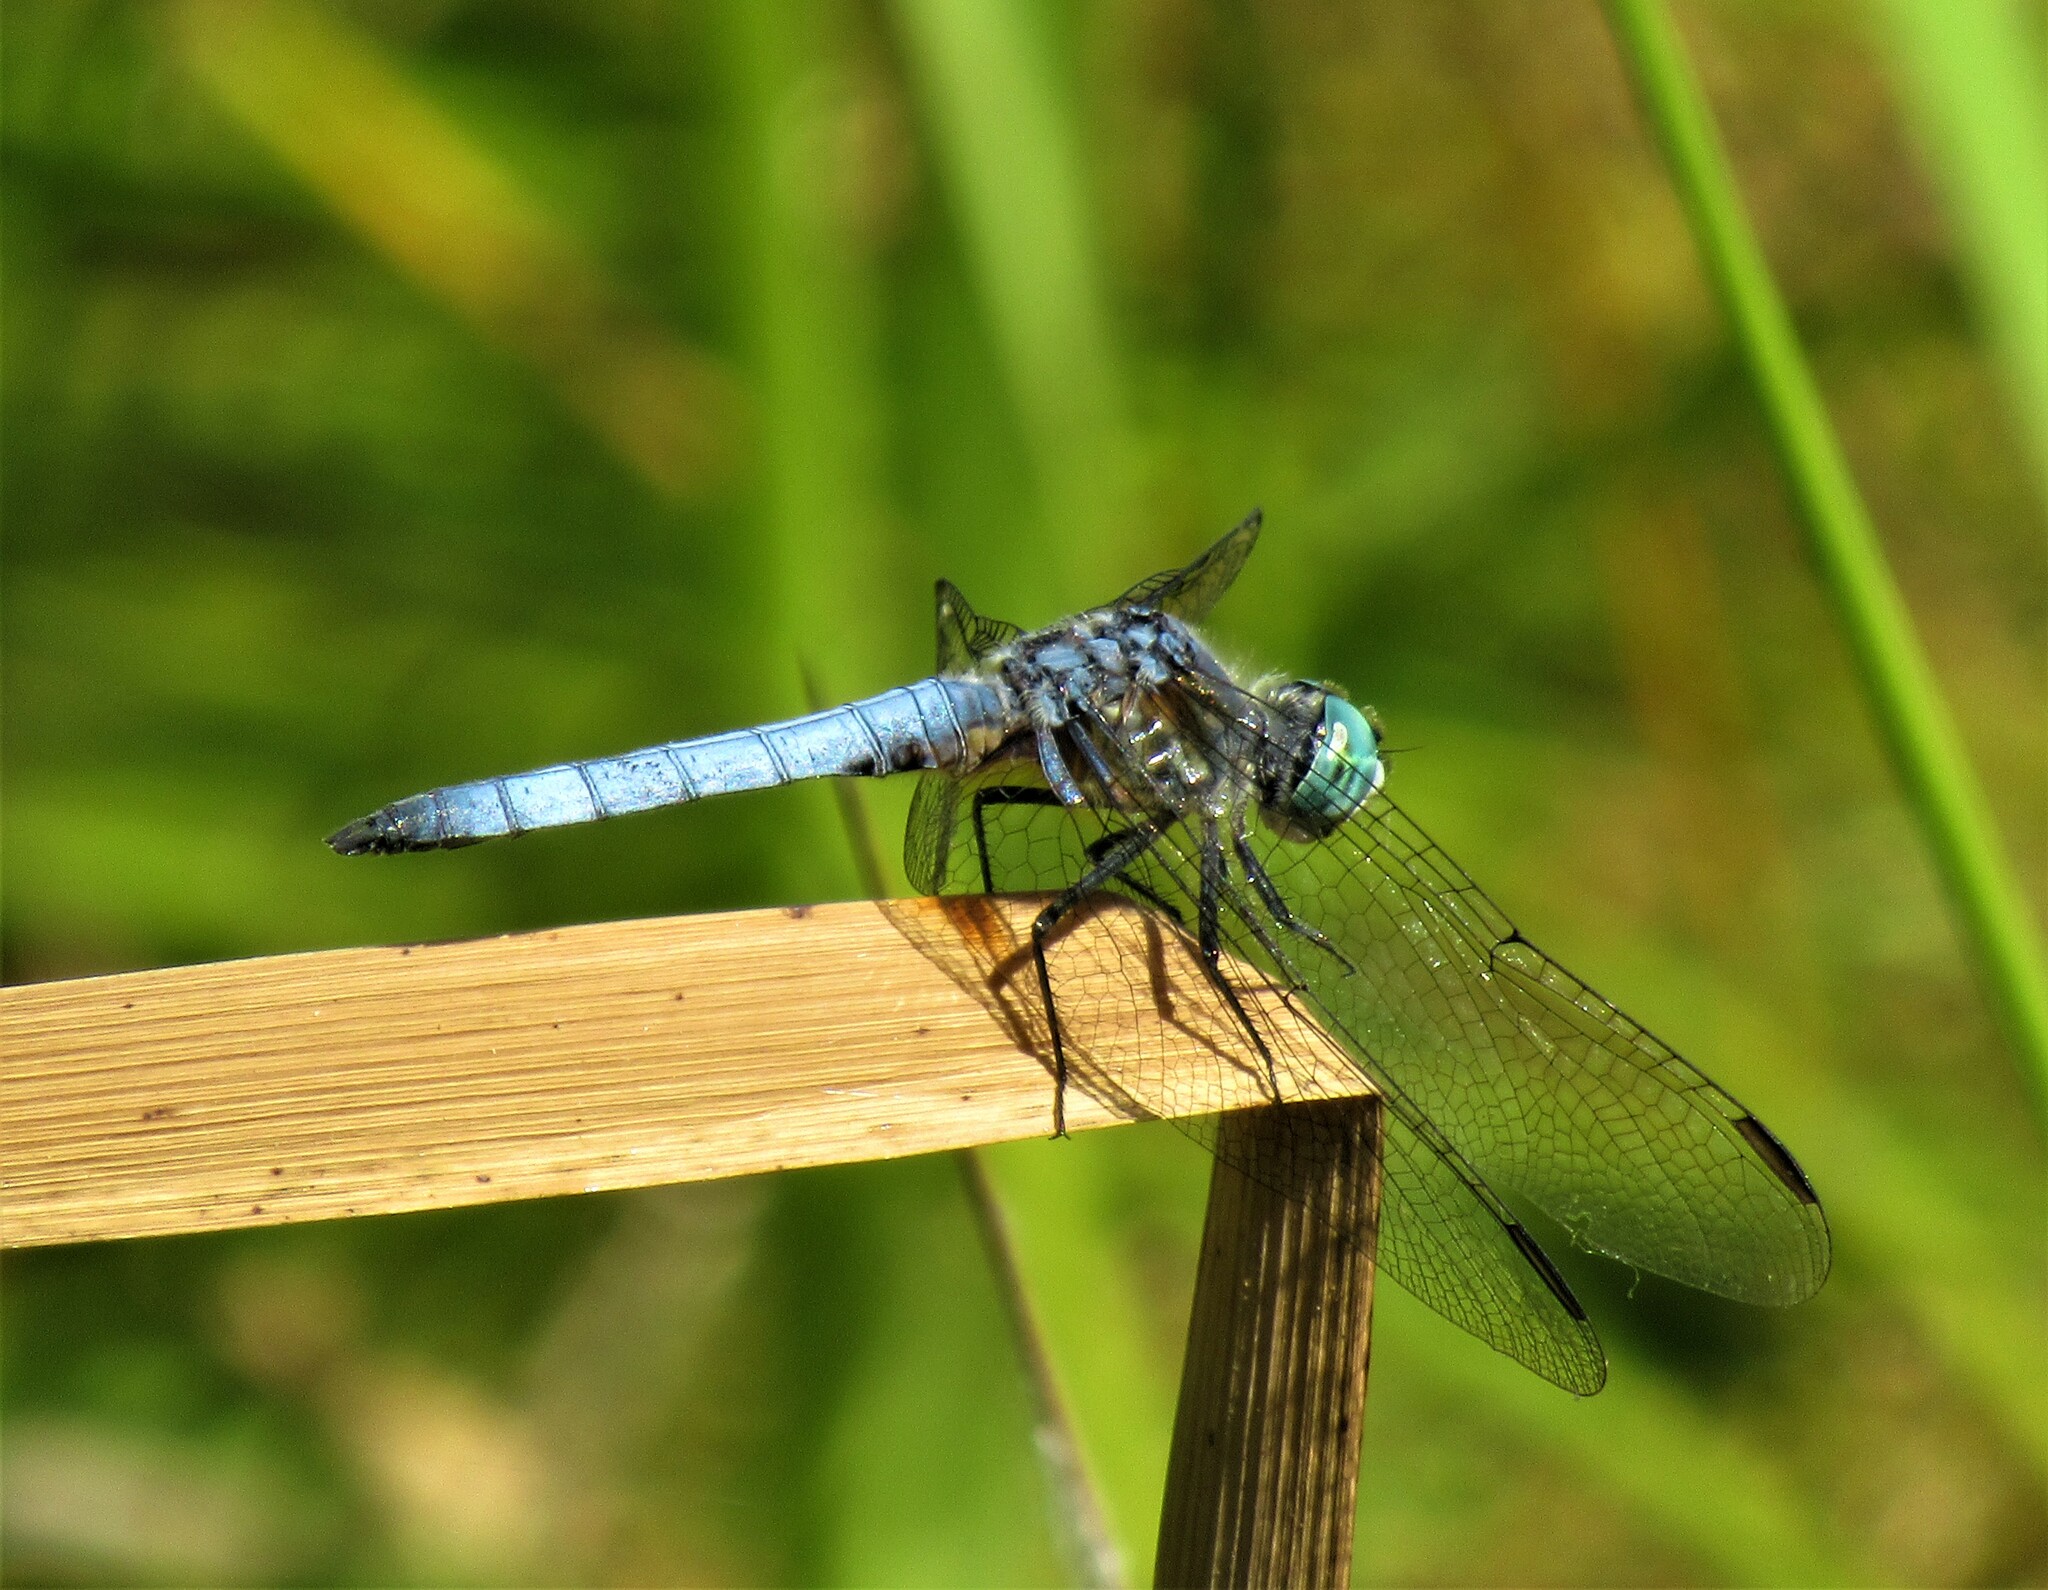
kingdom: Animalia
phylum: Arthropoda
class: Insecta
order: Odonata
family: Libellulidae
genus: Pachydiplax
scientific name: Pachydiplax longipennis
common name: Blue dasher
